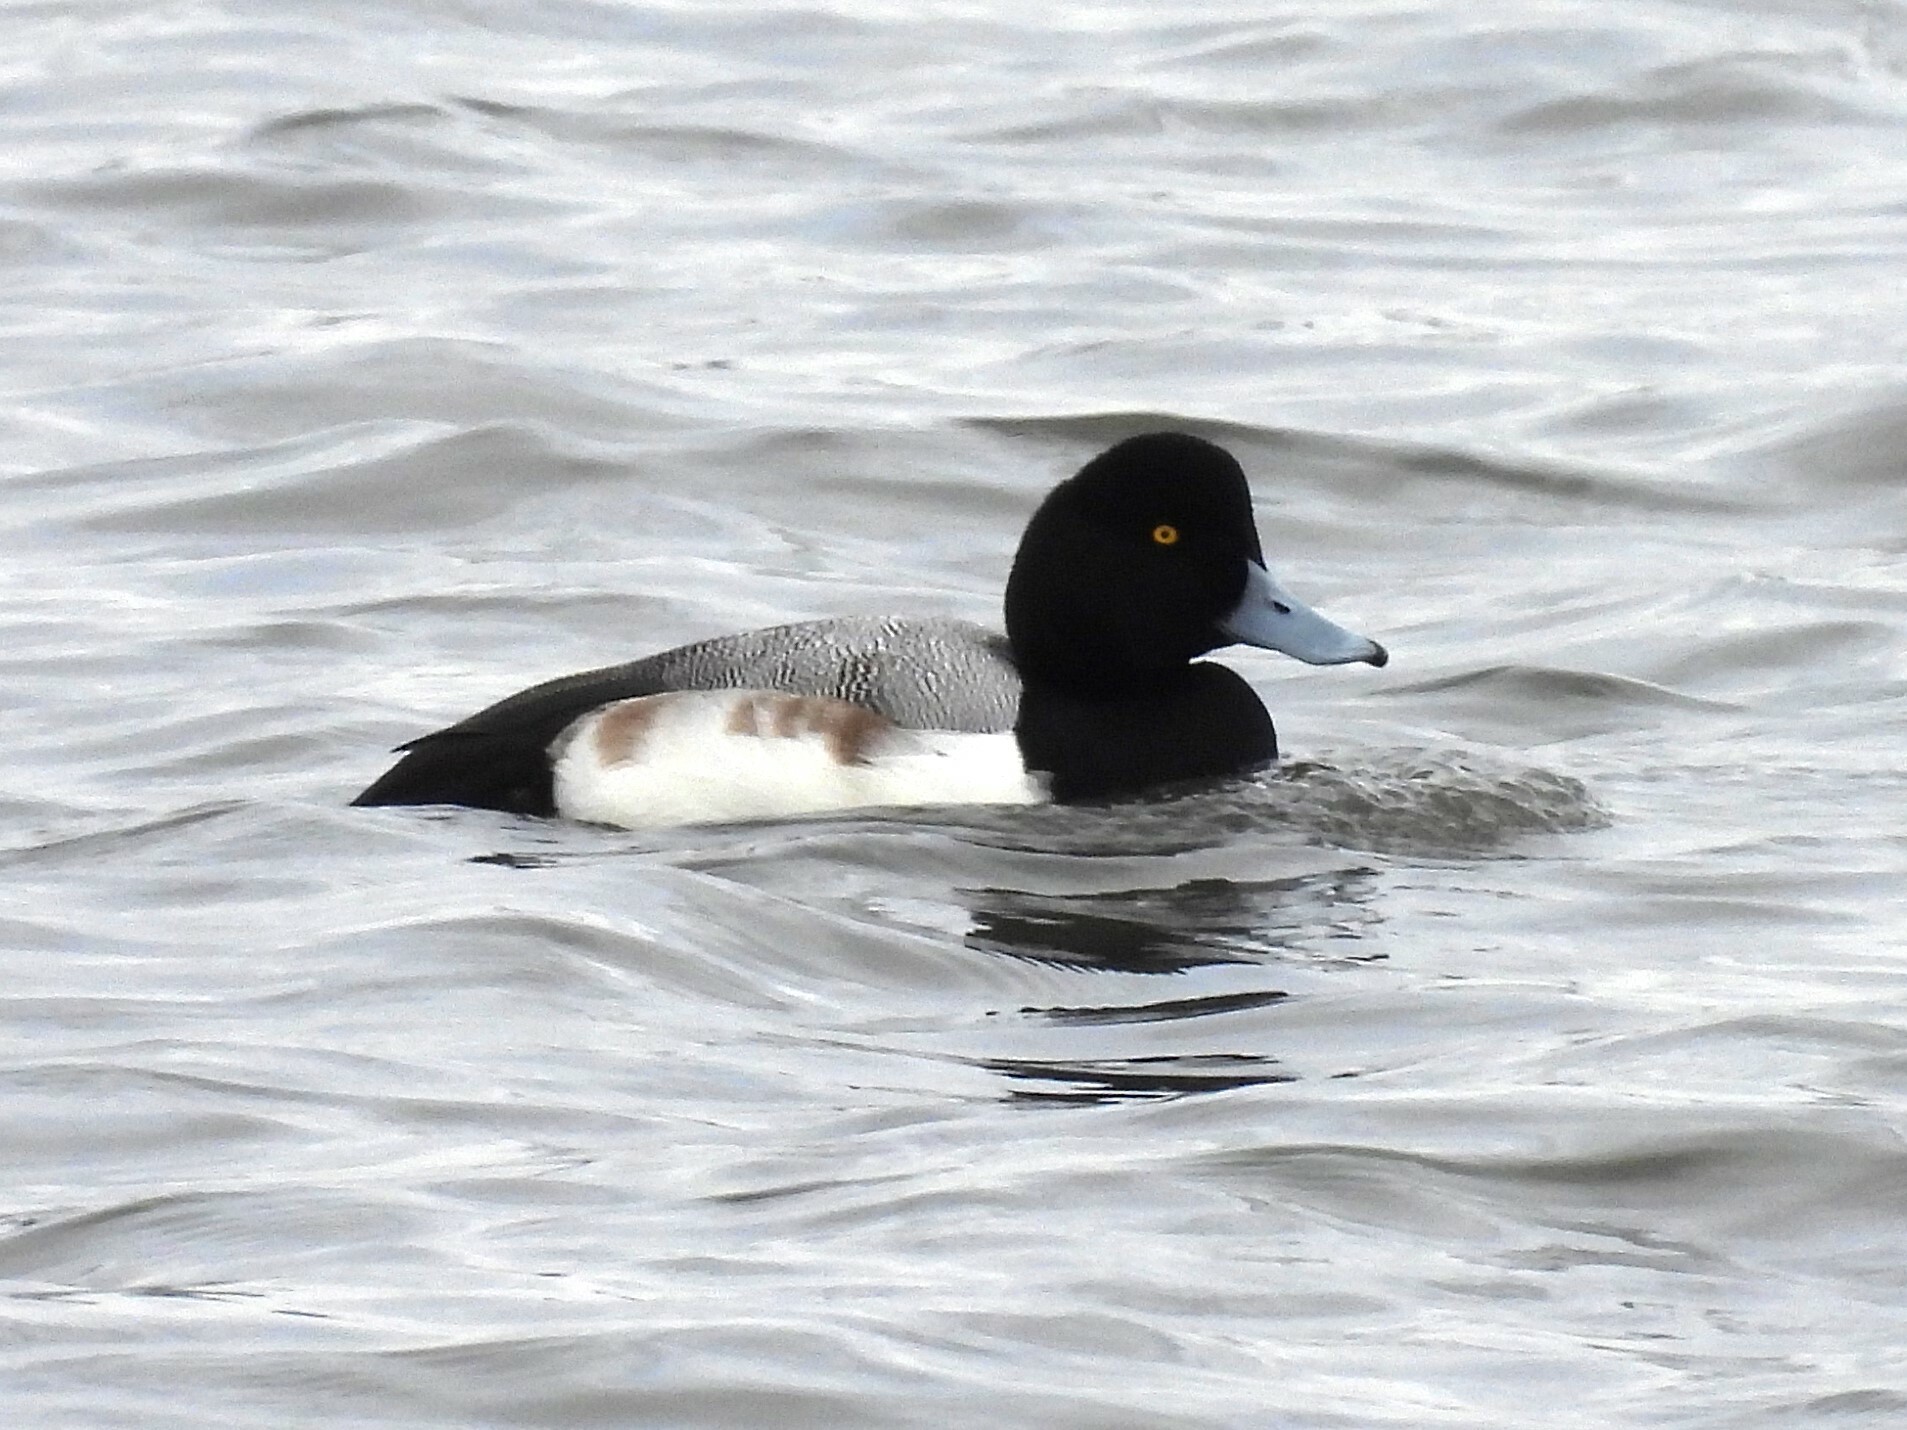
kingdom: Animalia
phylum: Chordata
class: Aves
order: Anseriformes
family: Anatidae
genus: Aythya
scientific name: Aythya marila
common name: Greater scaup
